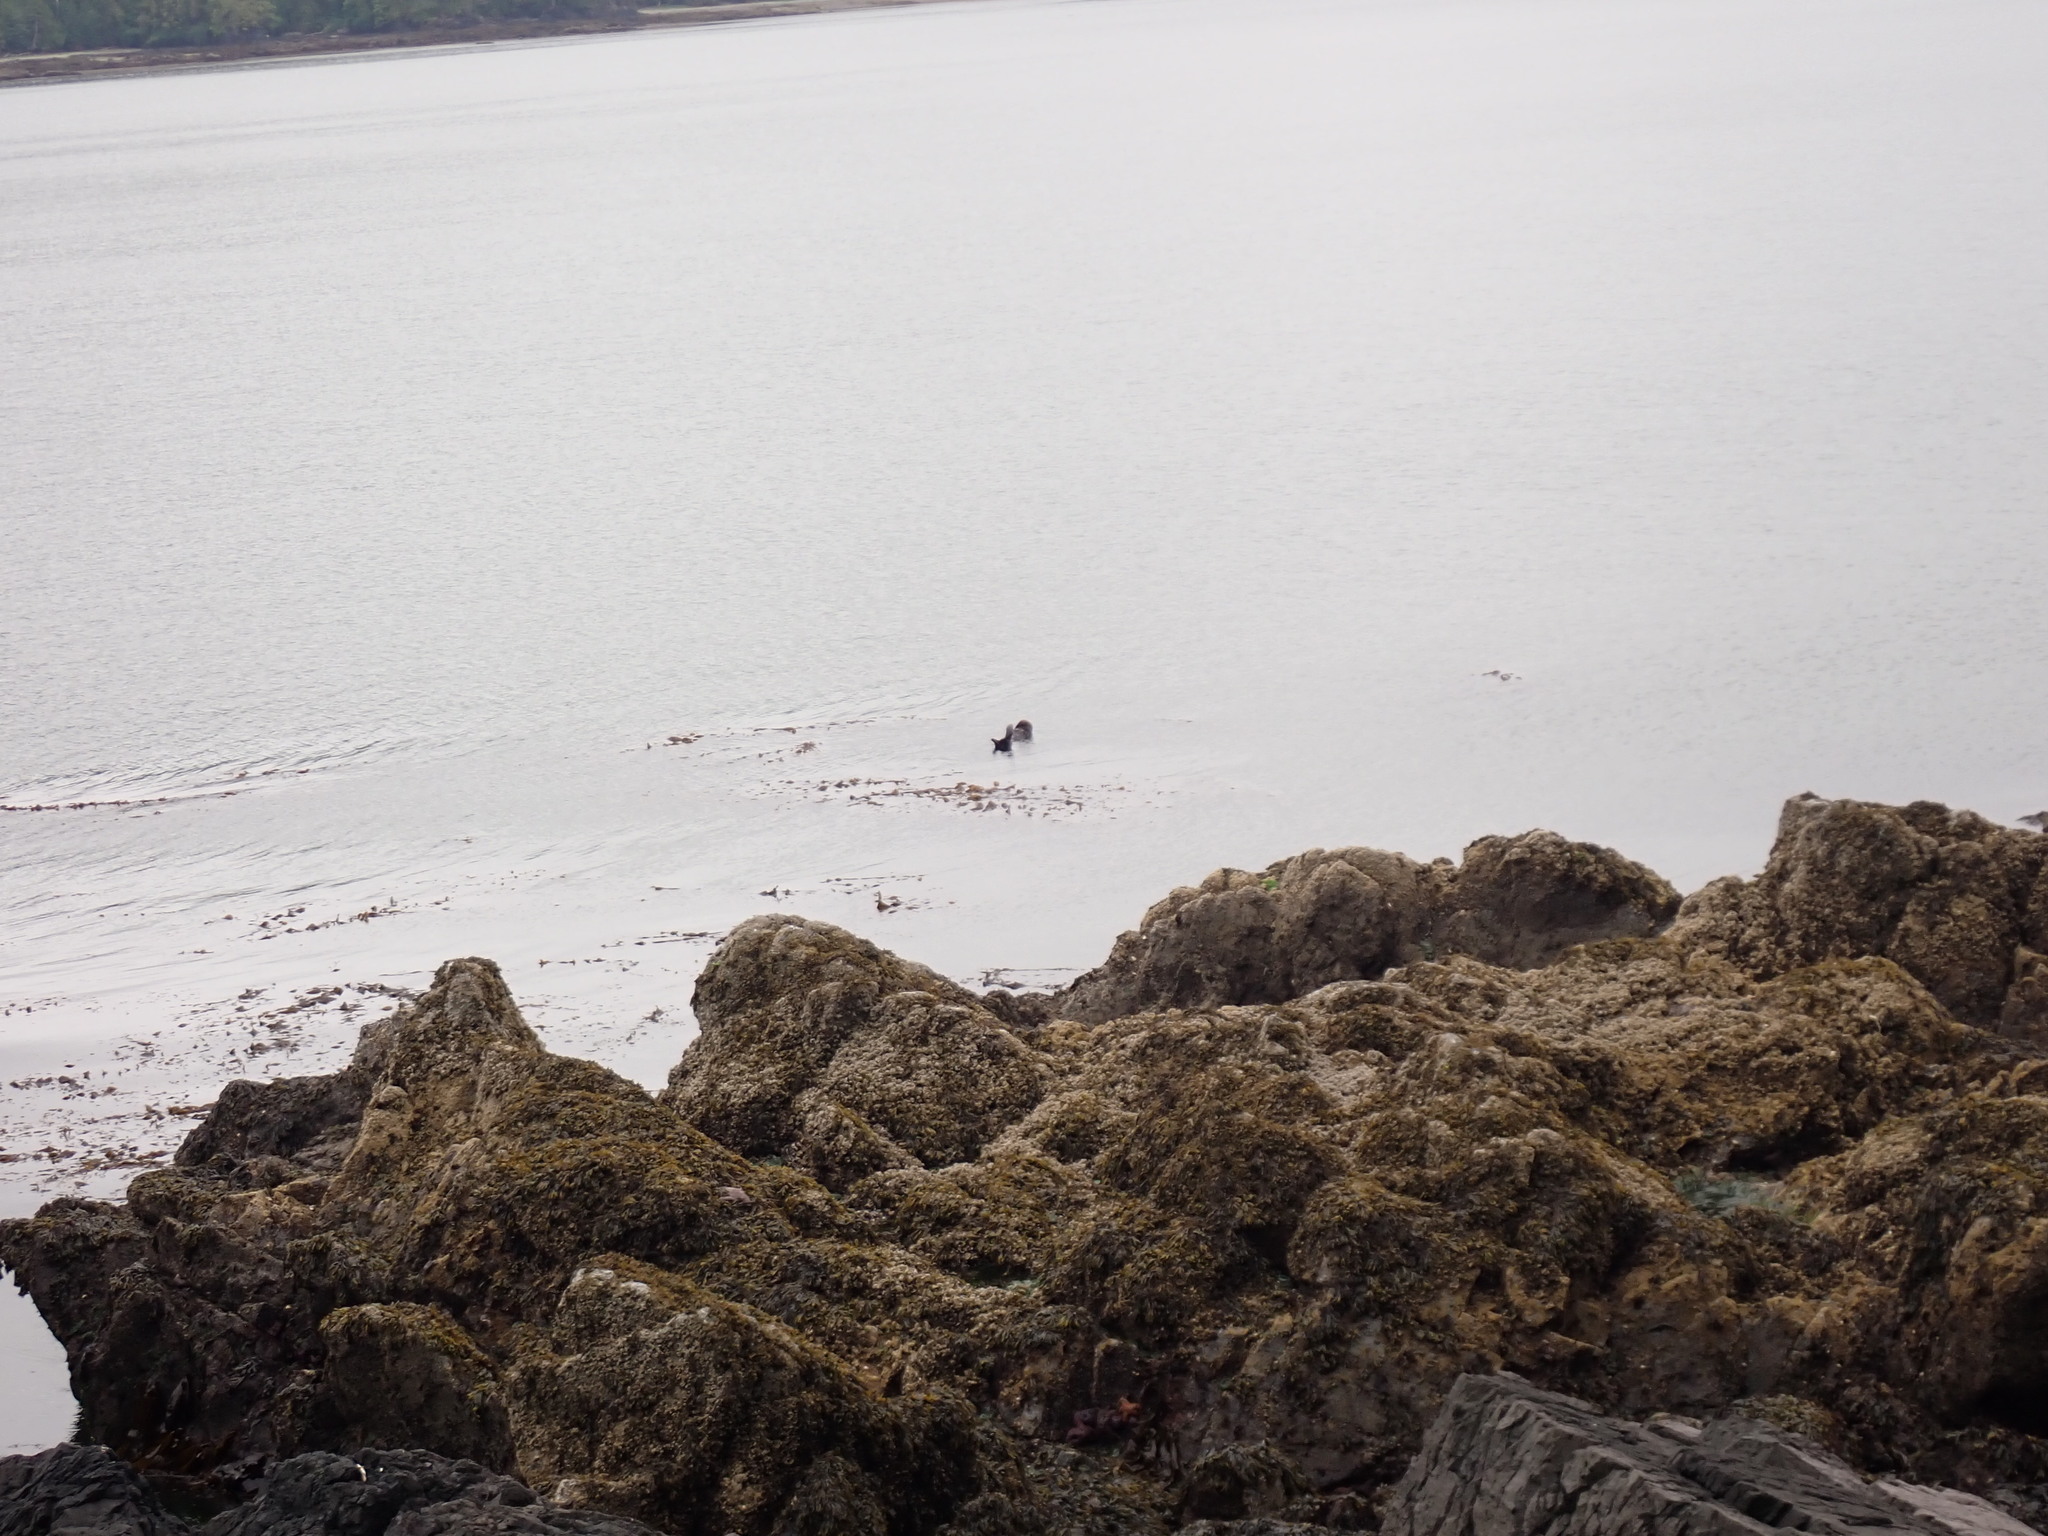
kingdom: Animalia
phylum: Chordata
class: Mammalia
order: Carnivora
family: Mustelidae
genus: Enhydra
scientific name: Enhydra lutris
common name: Sea otter
